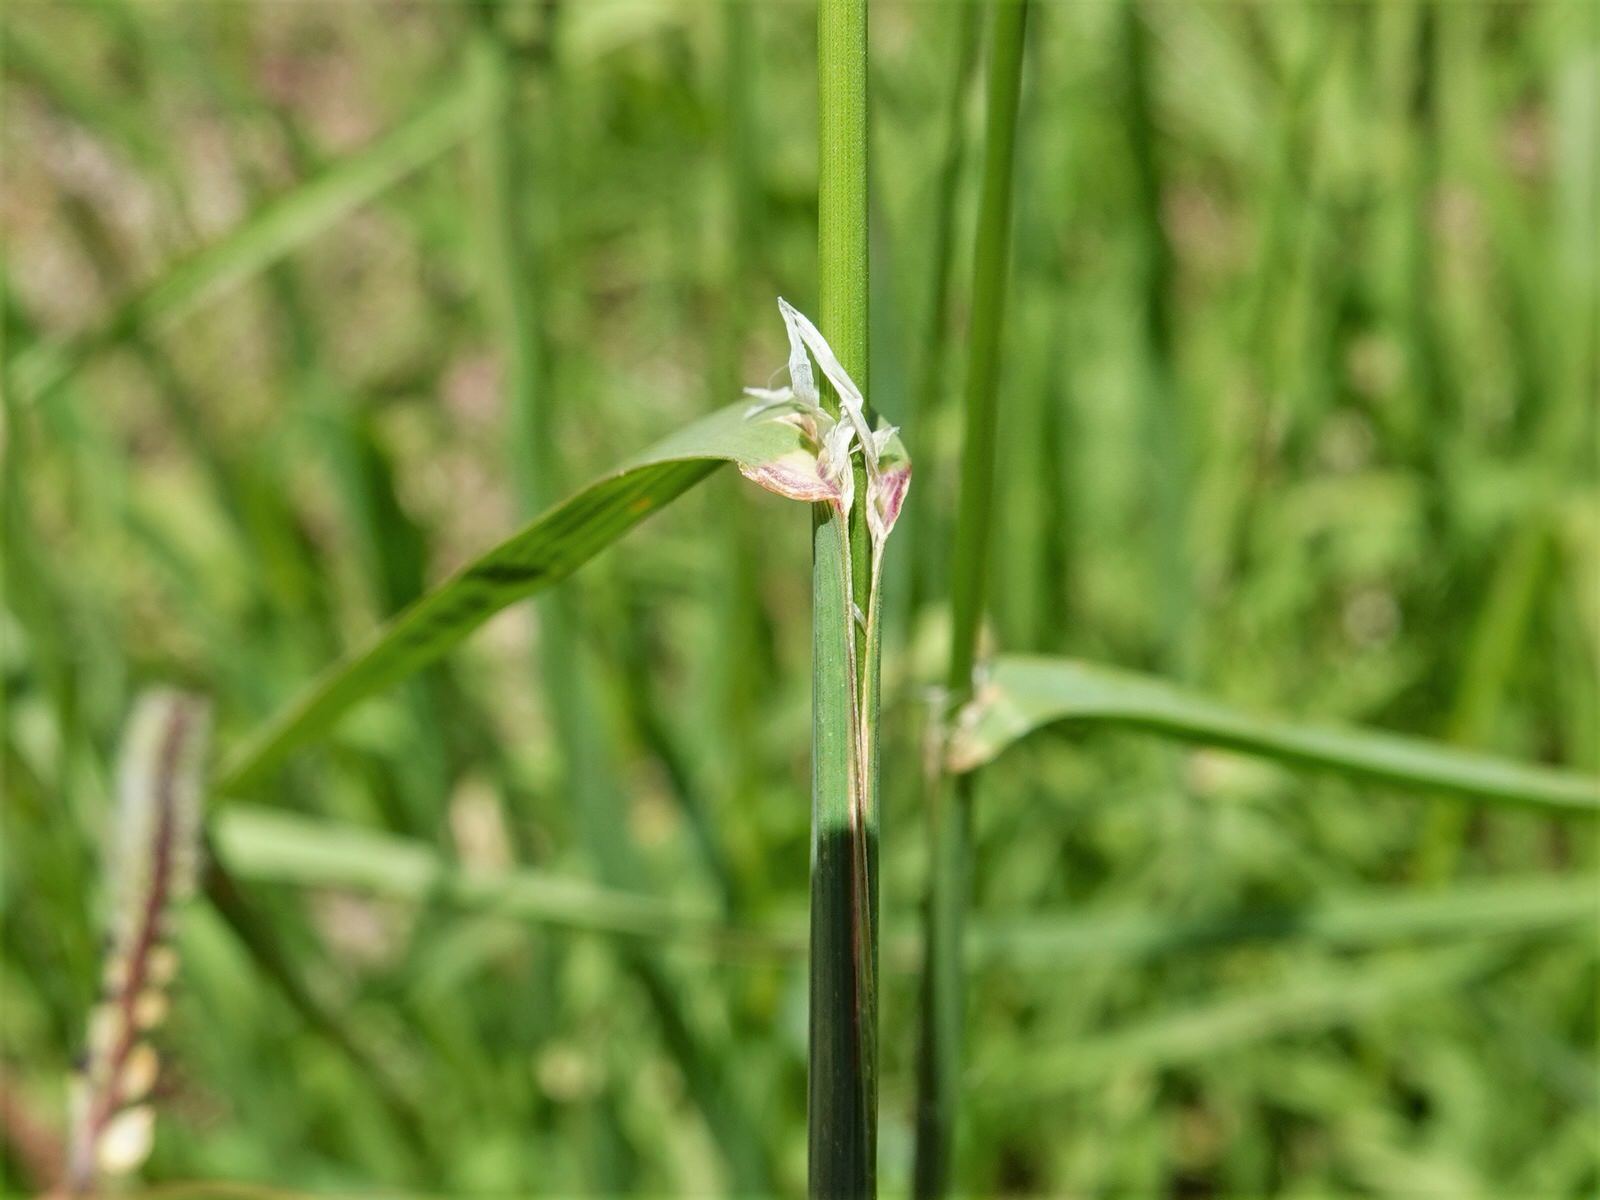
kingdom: Plantae
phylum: Tracheophyta
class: Liliopsida
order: Poales
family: Poaceae
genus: Dactylis
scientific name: Dactylis glomerata
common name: Orchardgrass
